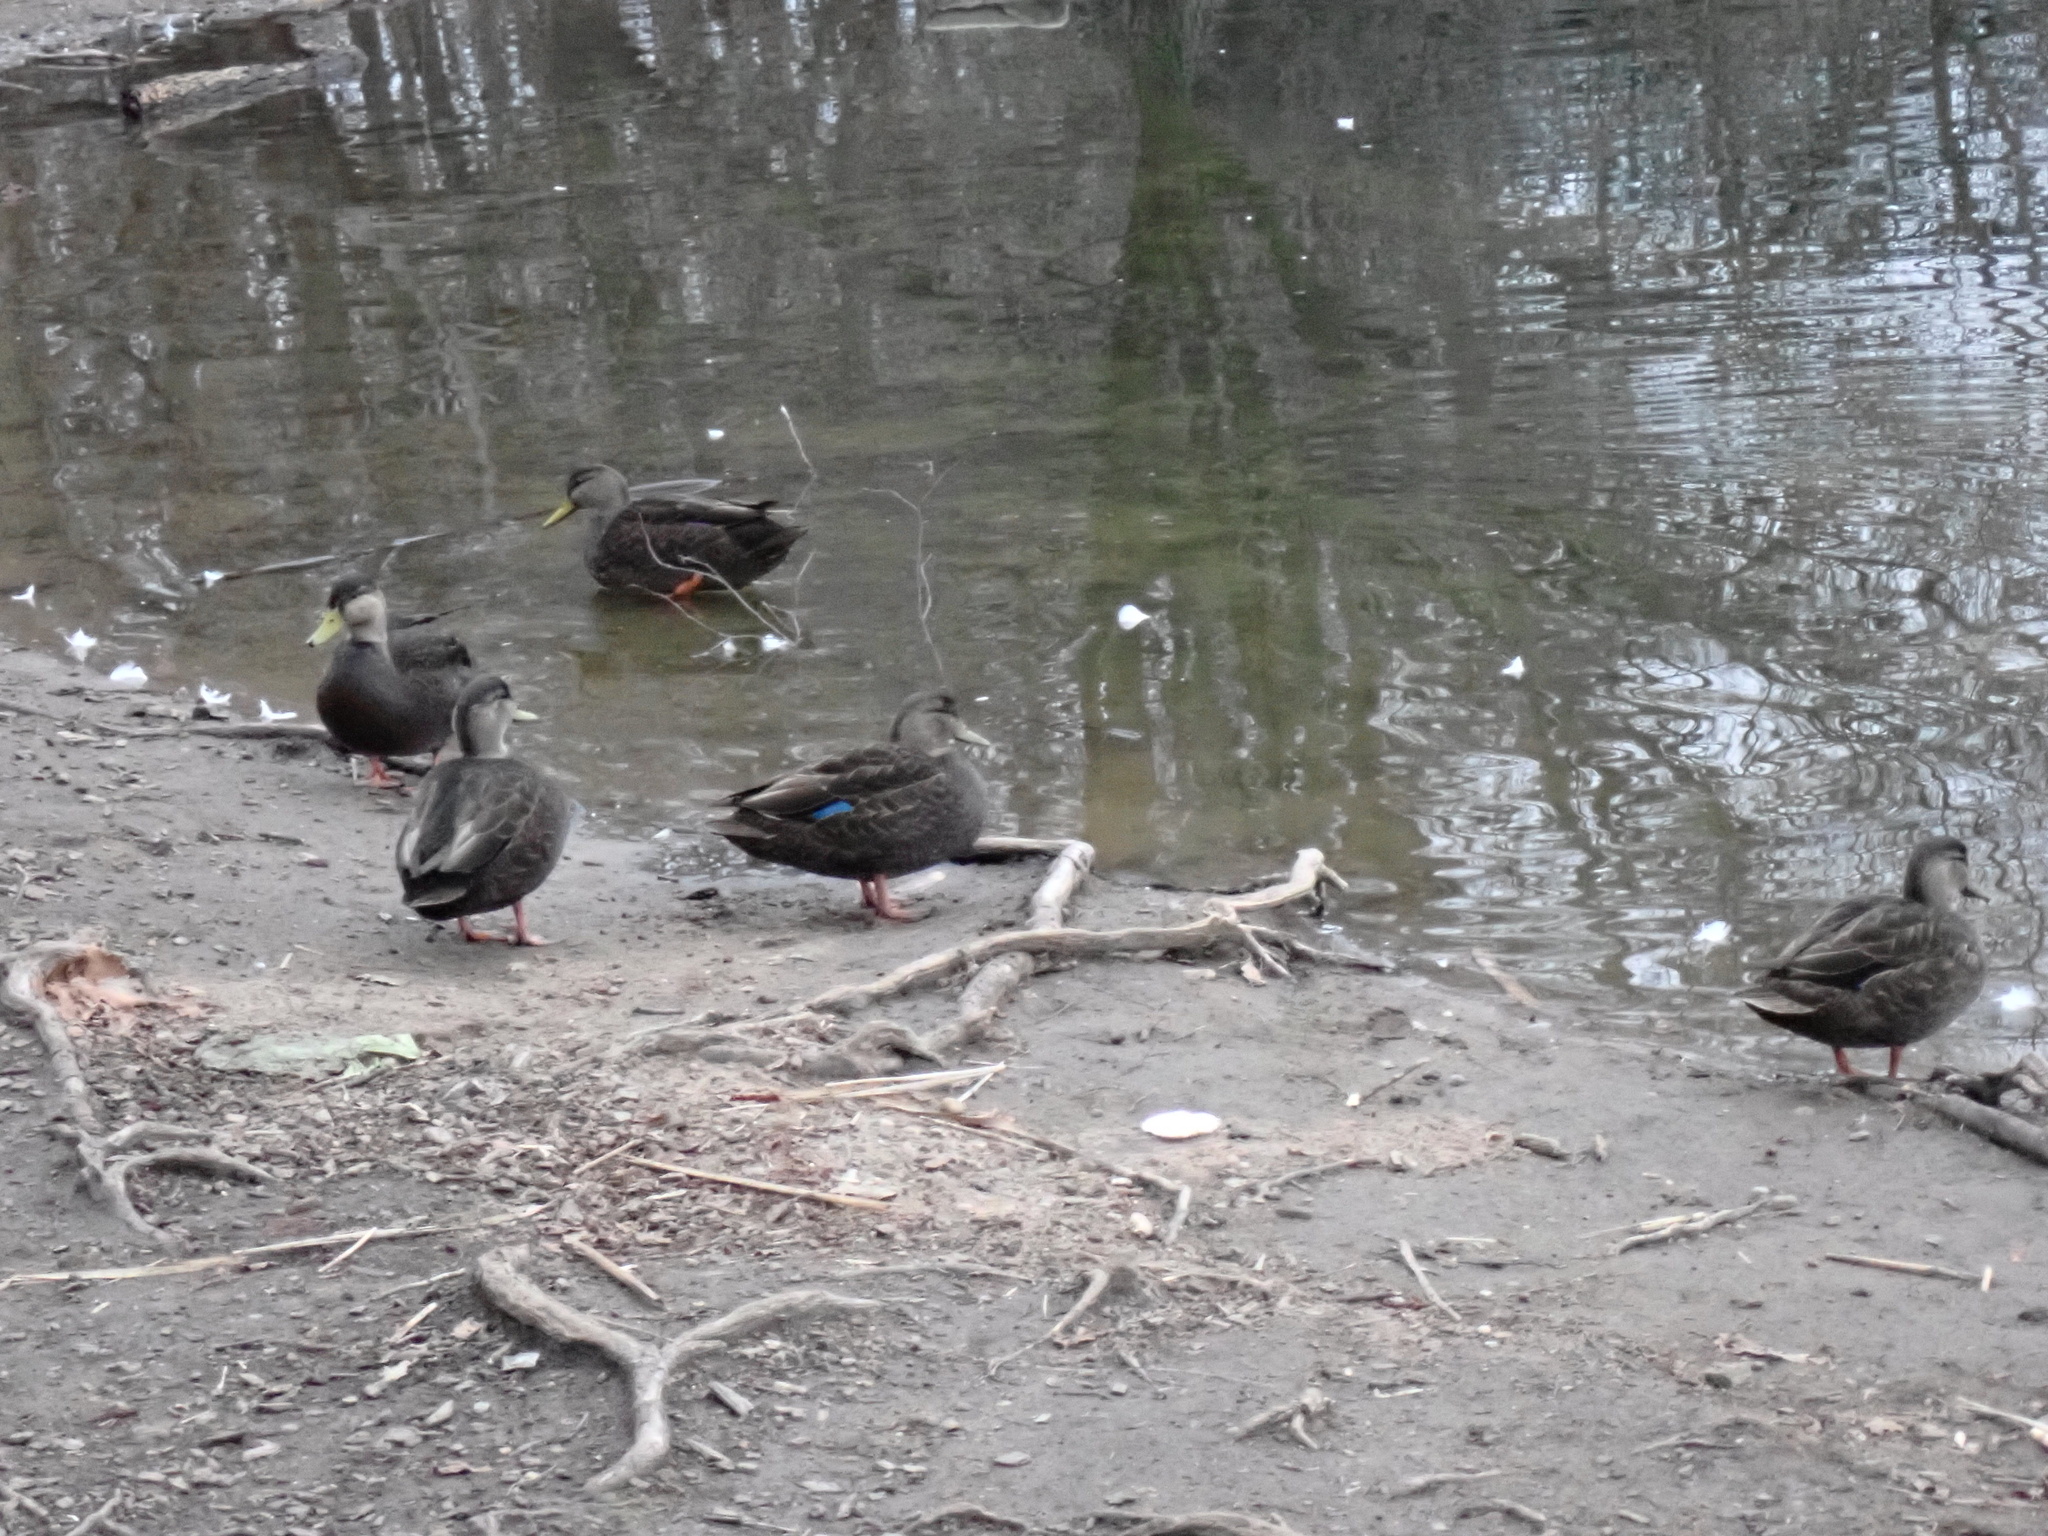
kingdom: Animalia
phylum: Chordata
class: Aves
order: Anseriformes
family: Anatidae
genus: Anas
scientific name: Anas rubripes
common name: American black duck
